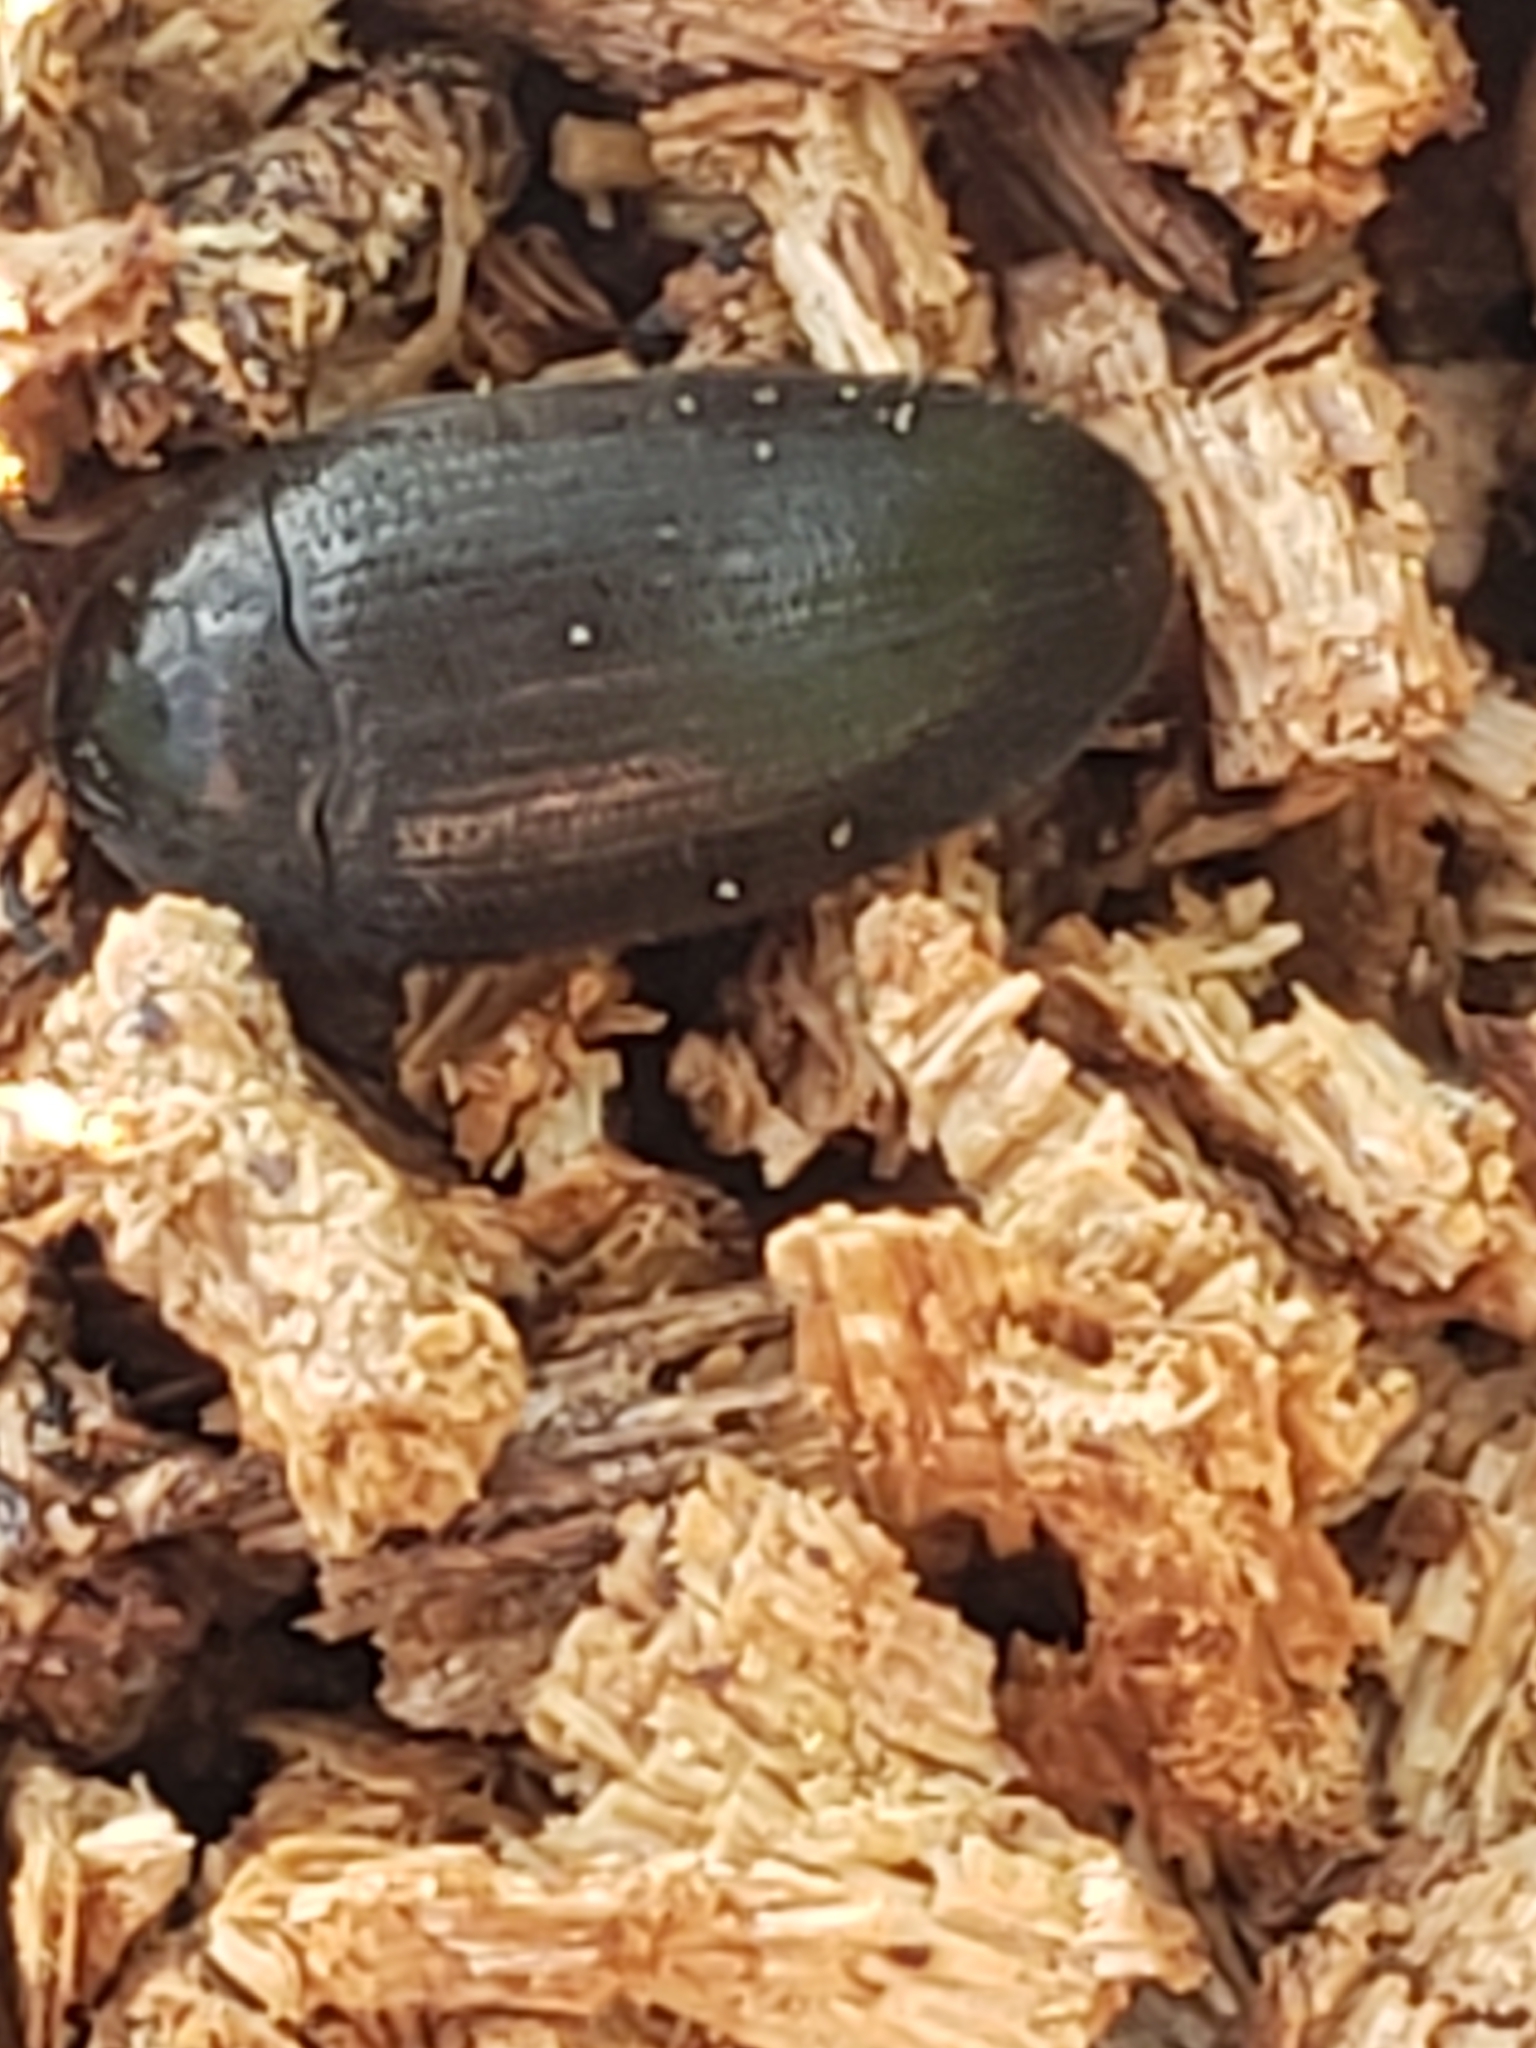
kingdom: Animalia
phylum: Arthropoda
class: Insecta
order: Coleoptera
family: Tetratomidae
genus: Eustrophopsis
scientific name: Eustrophopsis bicolor
